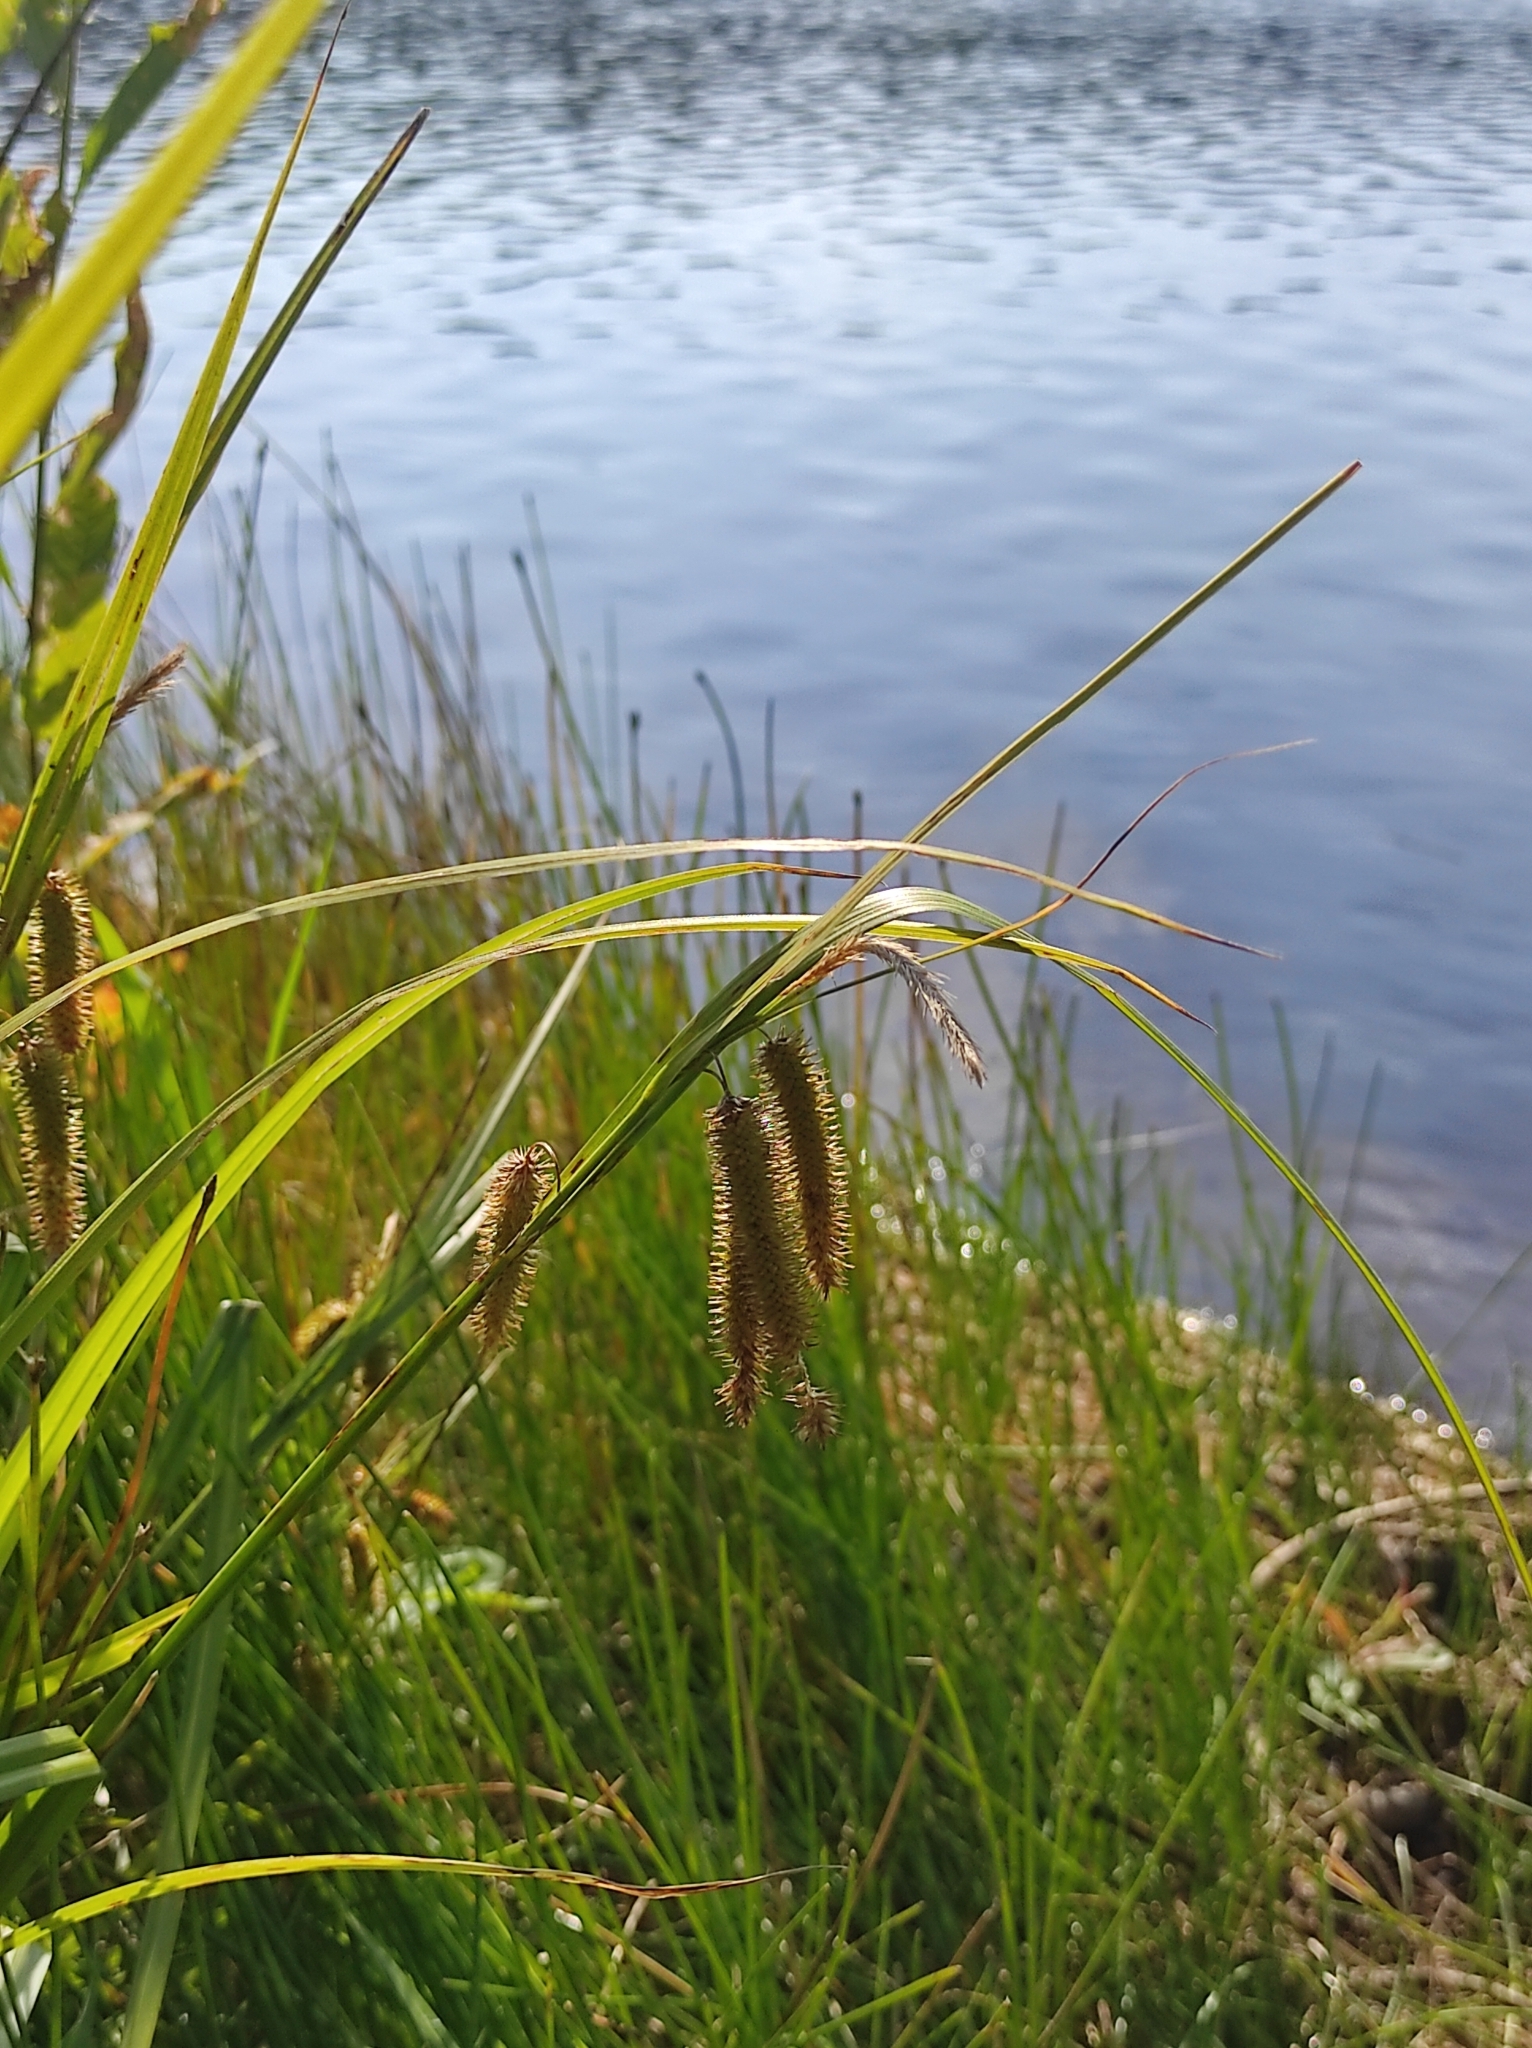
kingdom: Plantae
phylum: Tracheophyta
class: Liliopsida
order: Poales
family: Cyperaceae
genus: Carex
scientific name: Carex pseudocyperus
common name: Cyperus sedge
